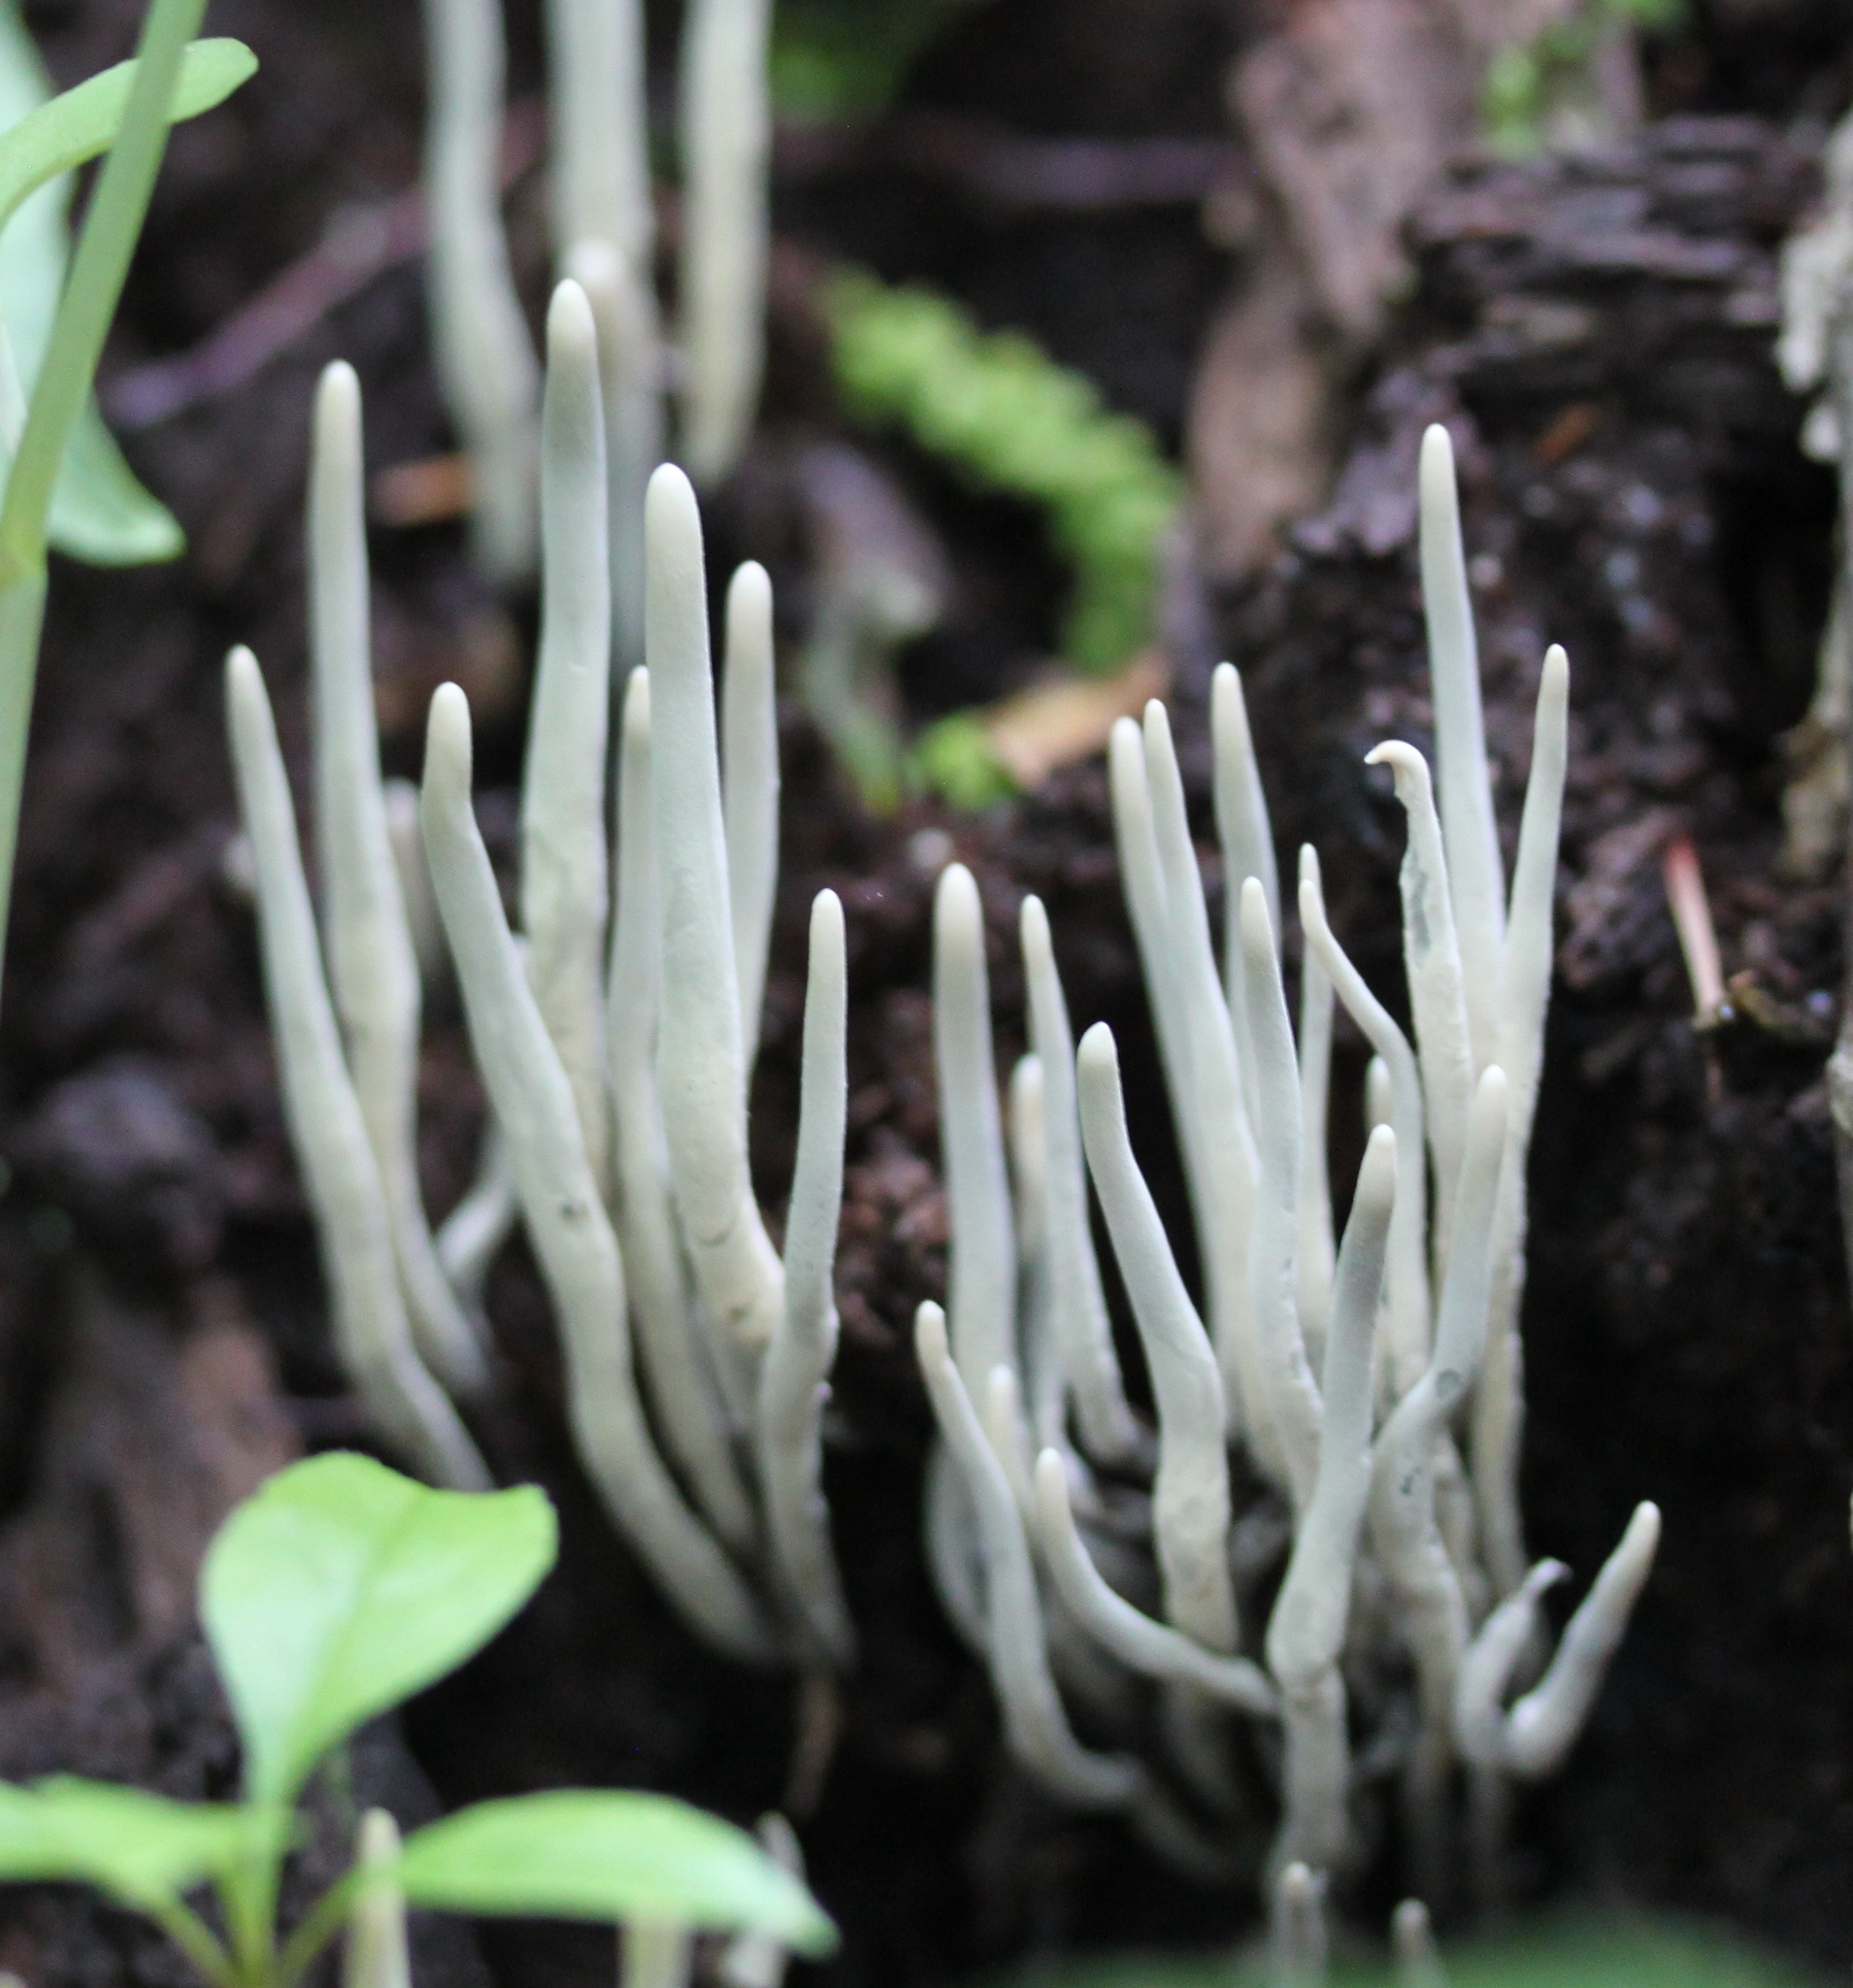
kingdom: Fungi
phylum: Ascomycota
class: Sordariomycetes
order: Xylariales
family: Xylariaceae
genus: Xylaria
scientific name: Xylaria hypoxylon
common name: Candle-snuff fungus
